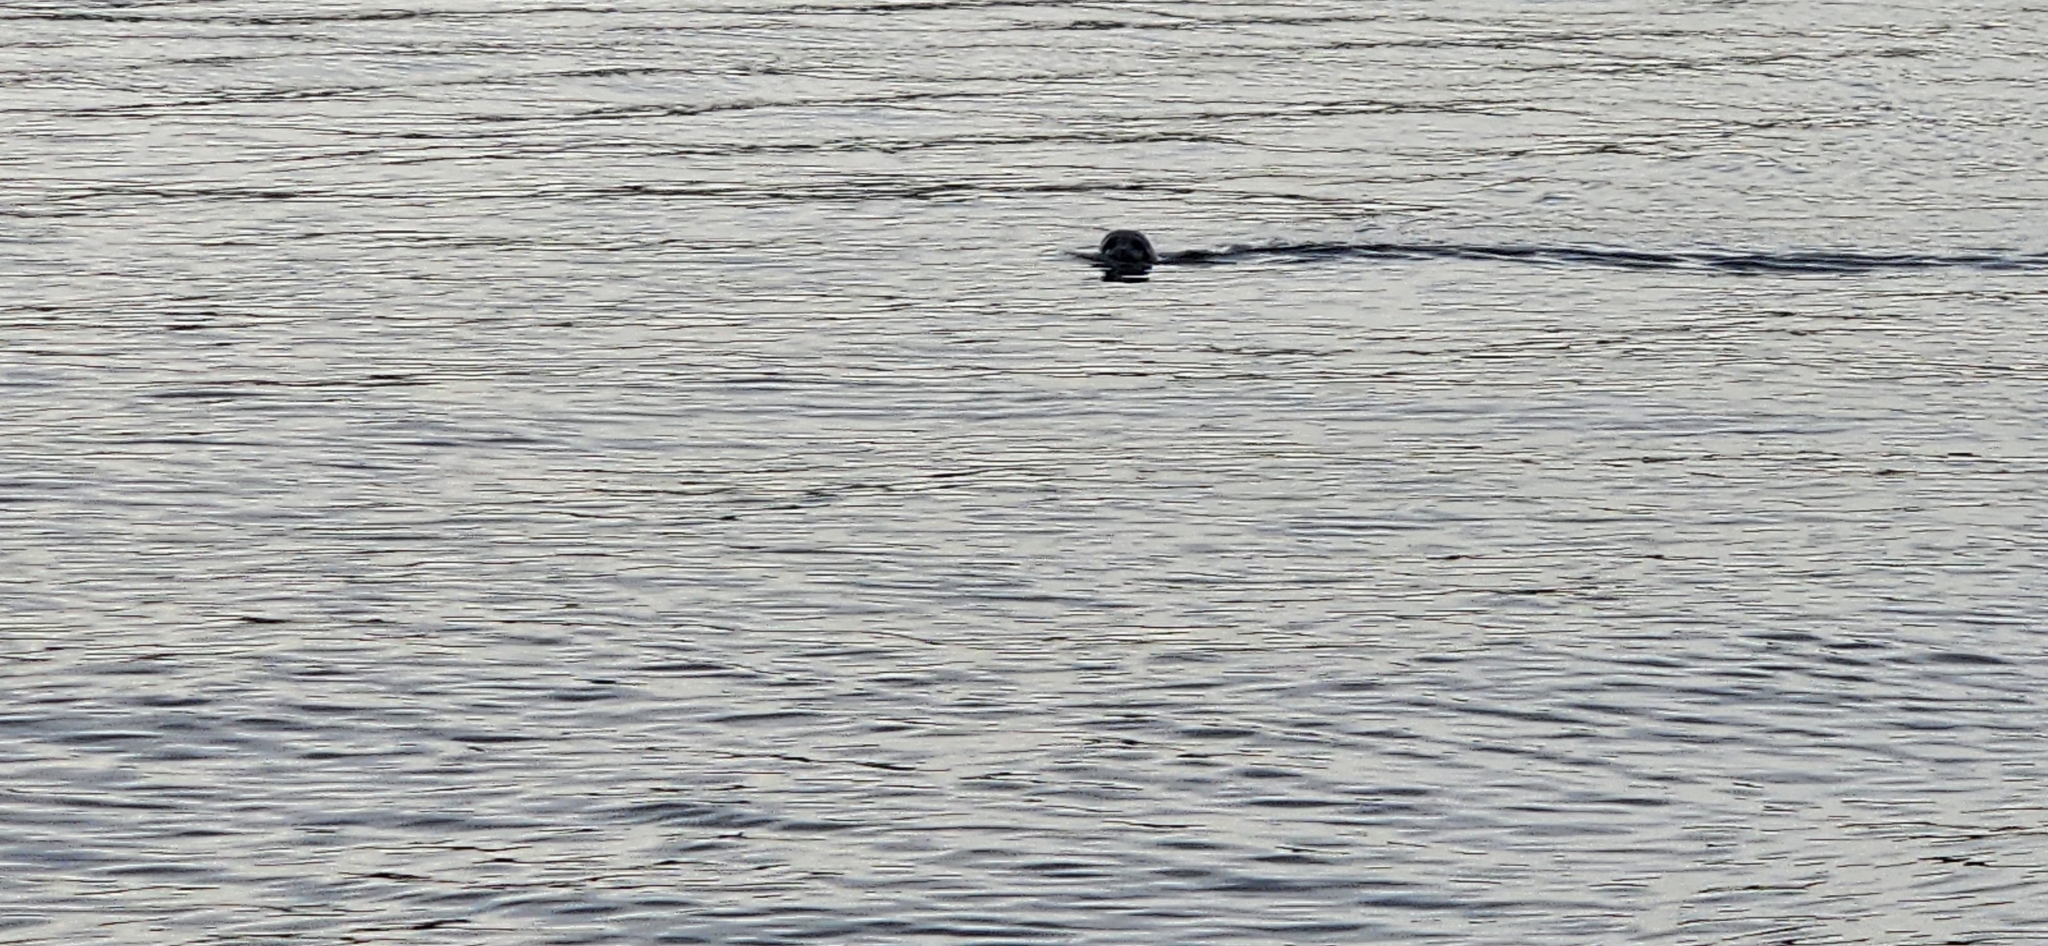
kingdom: Animalia
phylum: Chordata
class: Mammalia
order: Carnivora
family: Phocidae
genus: Phoca
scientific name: Phoca vitulina
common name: Harbor seal
